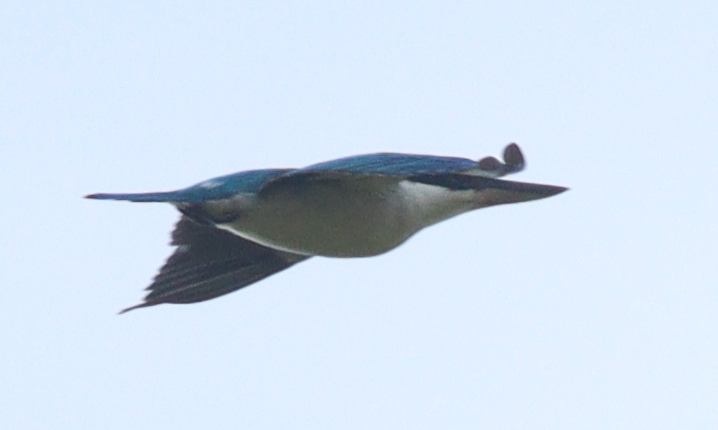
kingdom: Animalia
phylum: Chordata
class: Aves
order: Coraciiformes
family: Alcedinidae
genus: Todiramphus
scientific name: Todiramphus chloris
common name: Collared kingfisher
